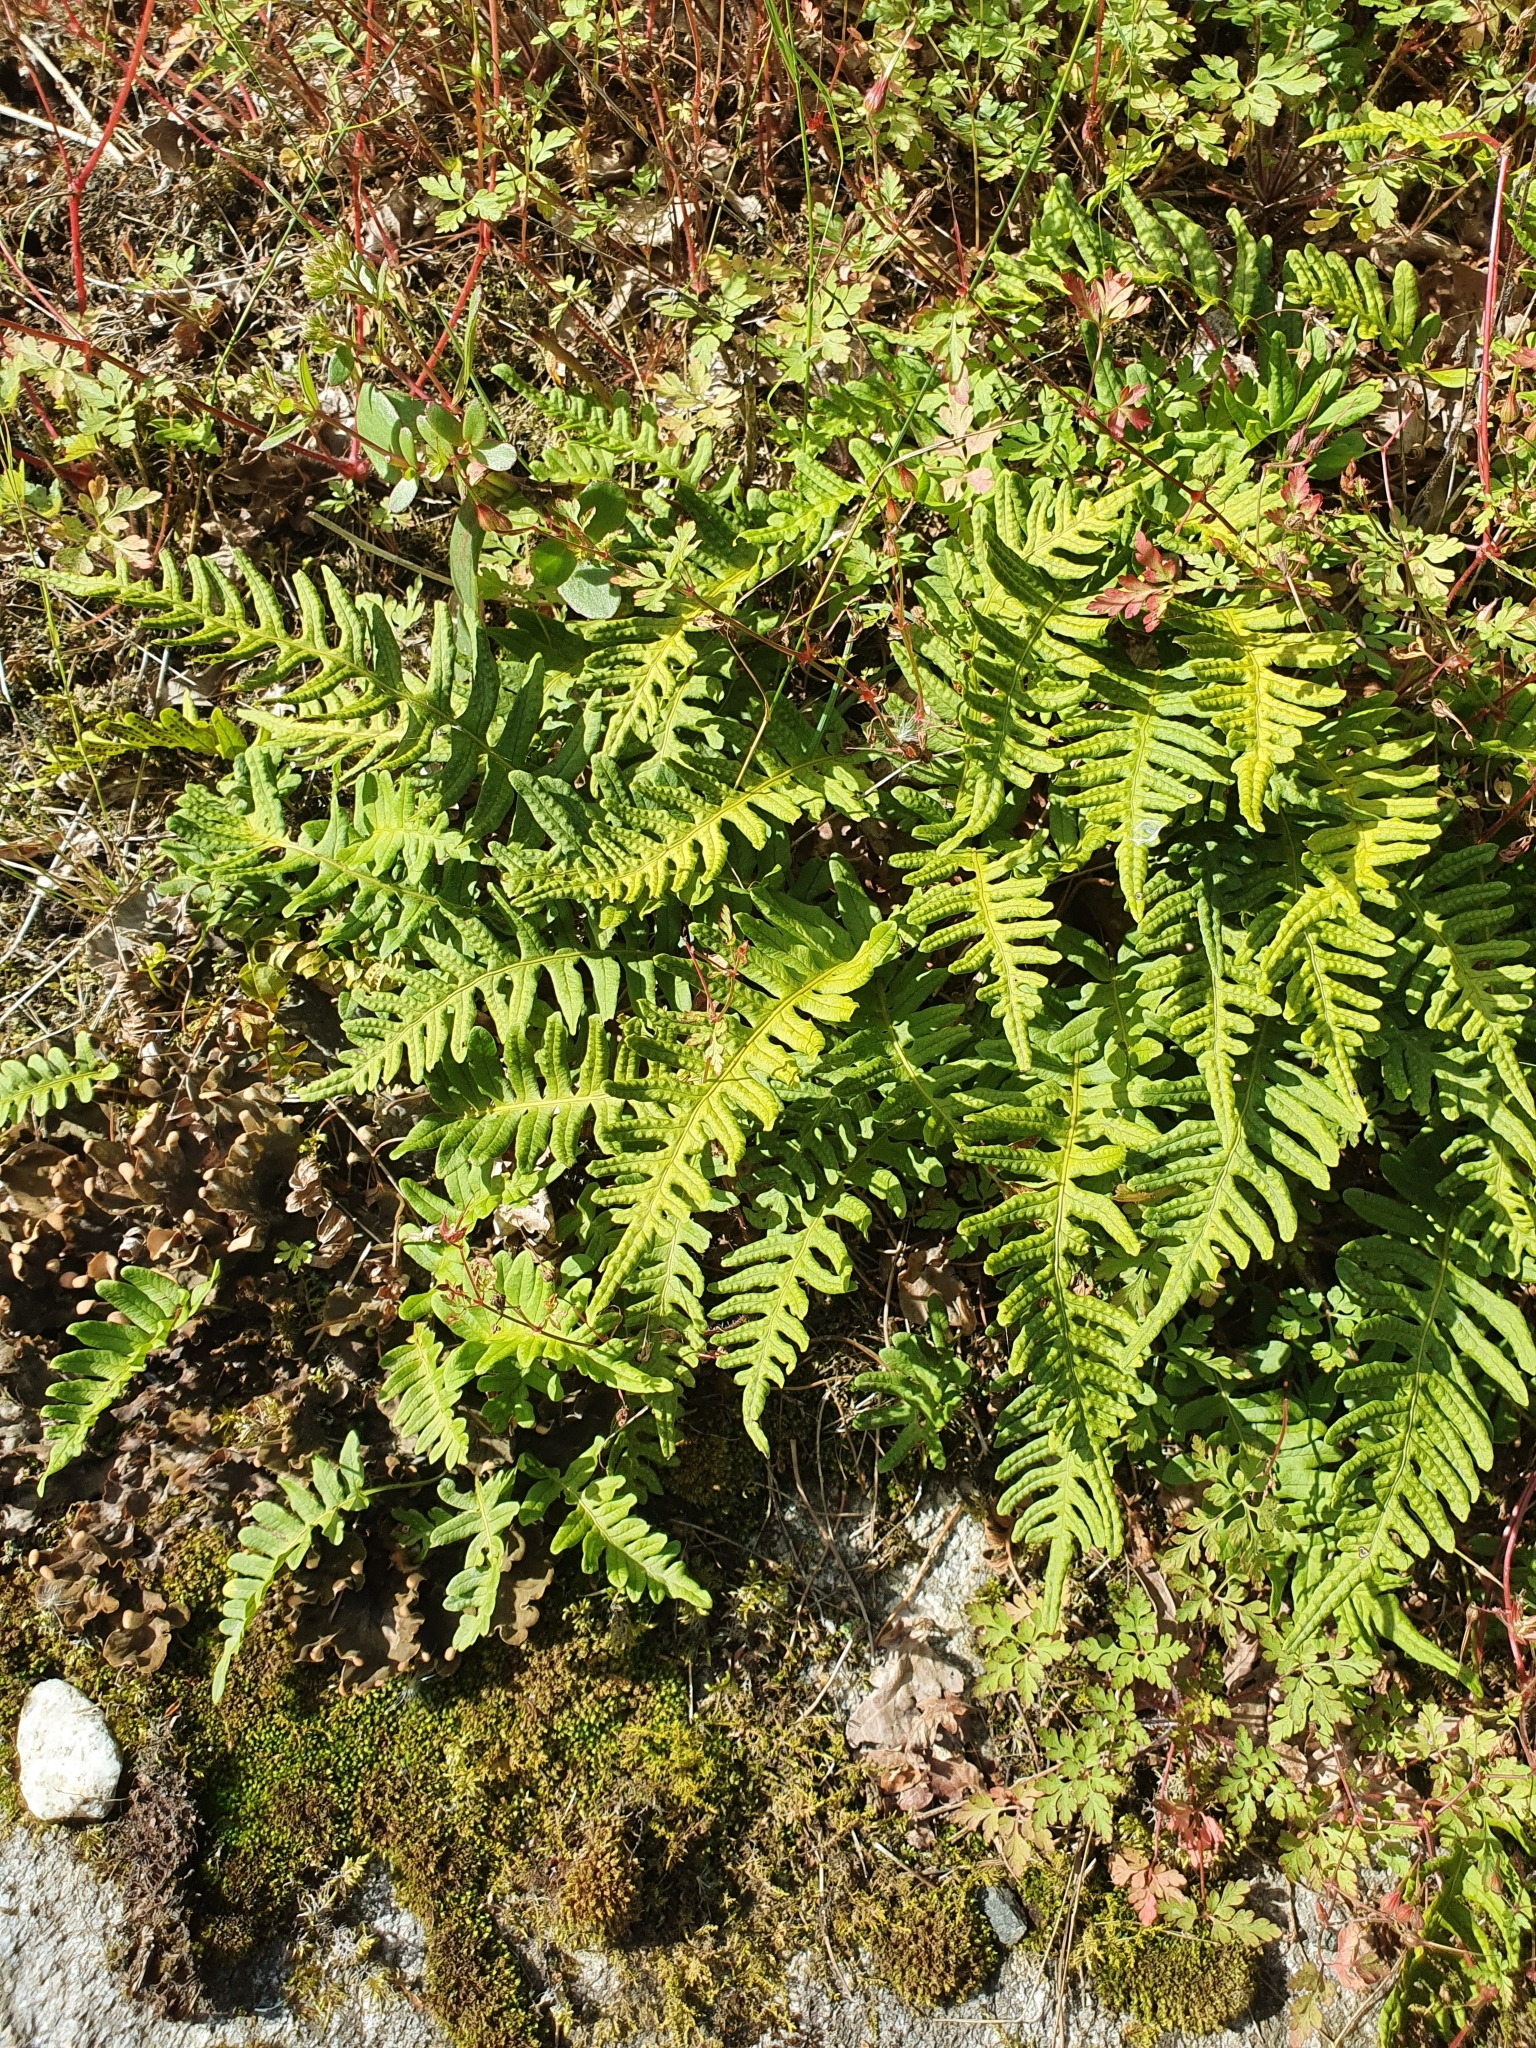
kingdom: Plantae
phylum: Tracheophyta
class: Polypodiopsida
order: Polypodiales
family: Polypodiaceae
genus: Polypodium
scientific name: Polypodium vulgare
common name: Common polypody
